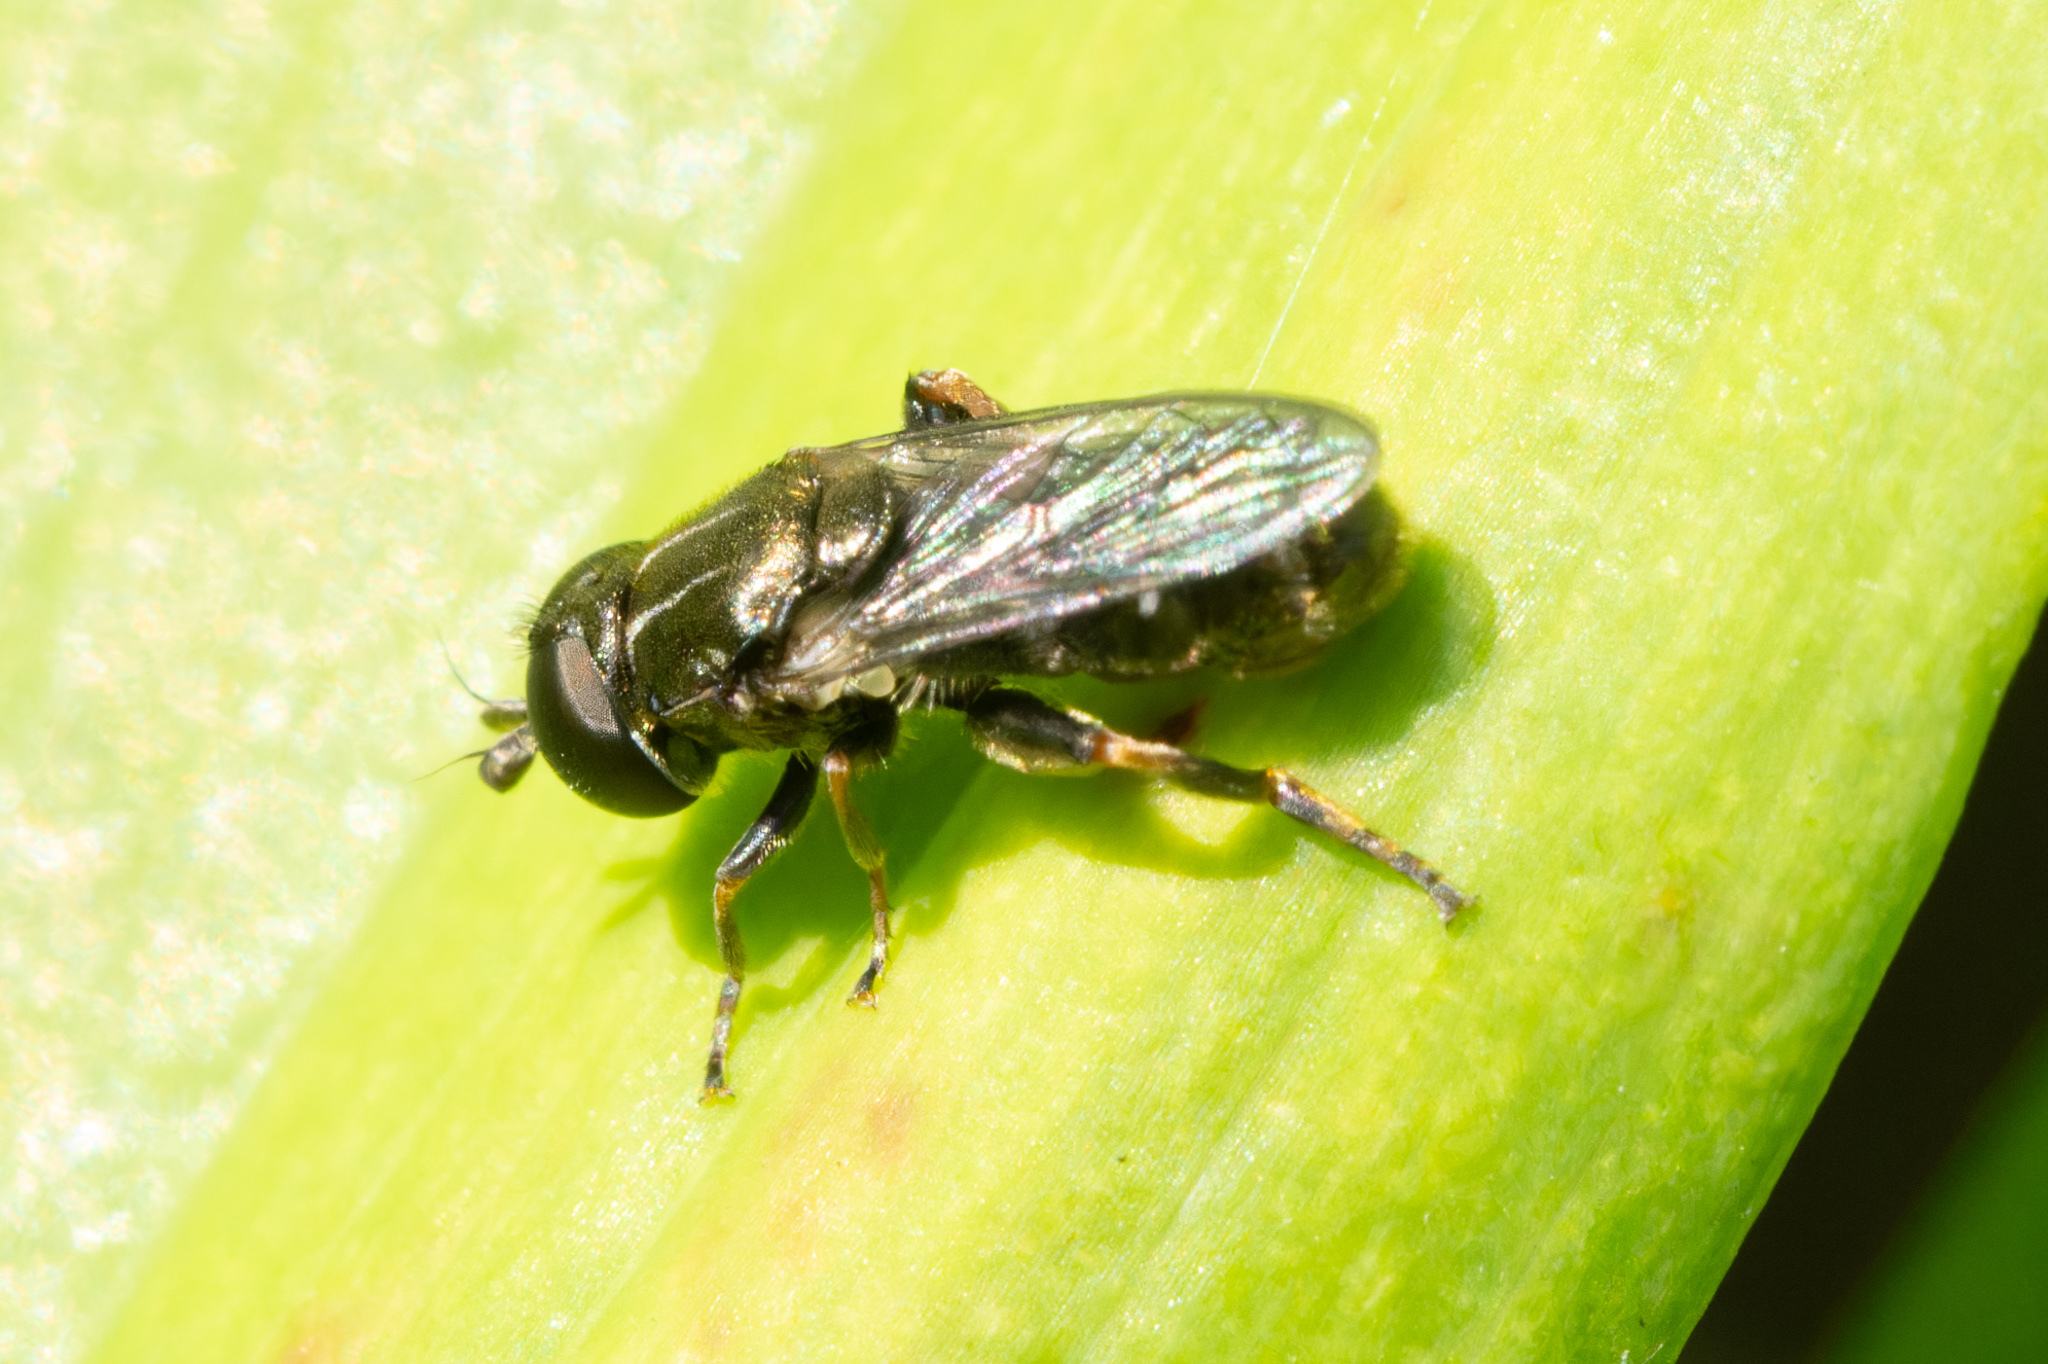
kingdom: Animalia
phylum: Arthropoda
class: Insecta
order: Diptera
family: Syrphidae
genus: Eumerus
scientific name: Eumerus
